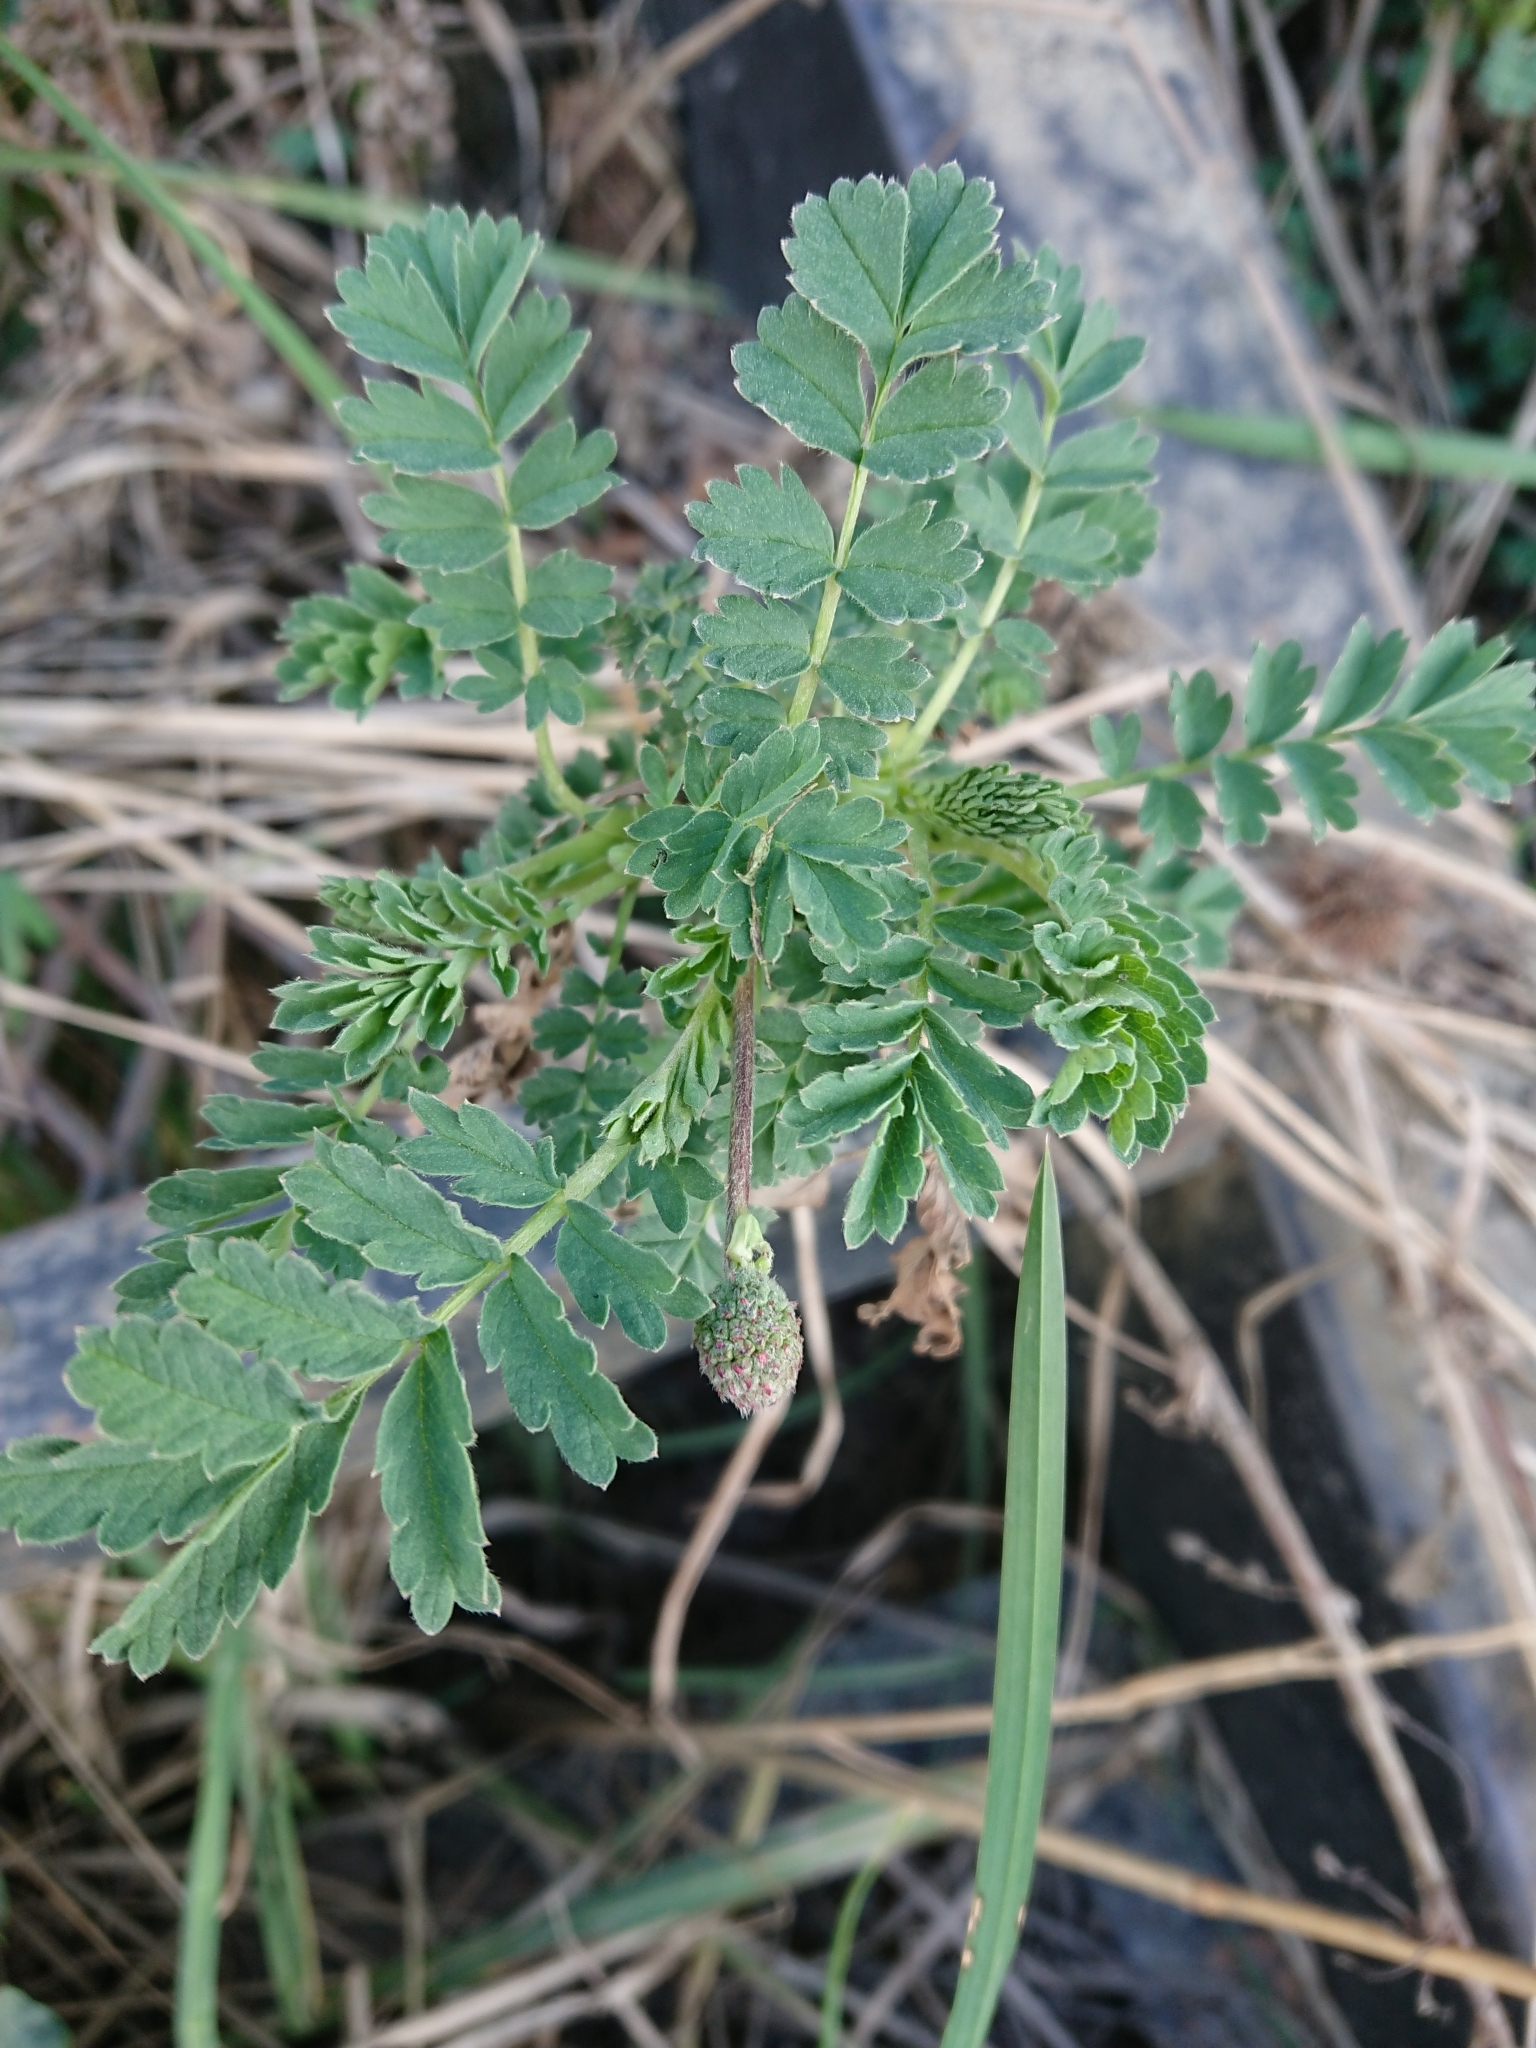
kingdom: Plantae
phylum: Tracheophyta
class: Magnoliopsida
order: Rosales
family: Rosaceae
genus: Acaena
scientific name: Acaena magellanica
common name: New zealand burr
